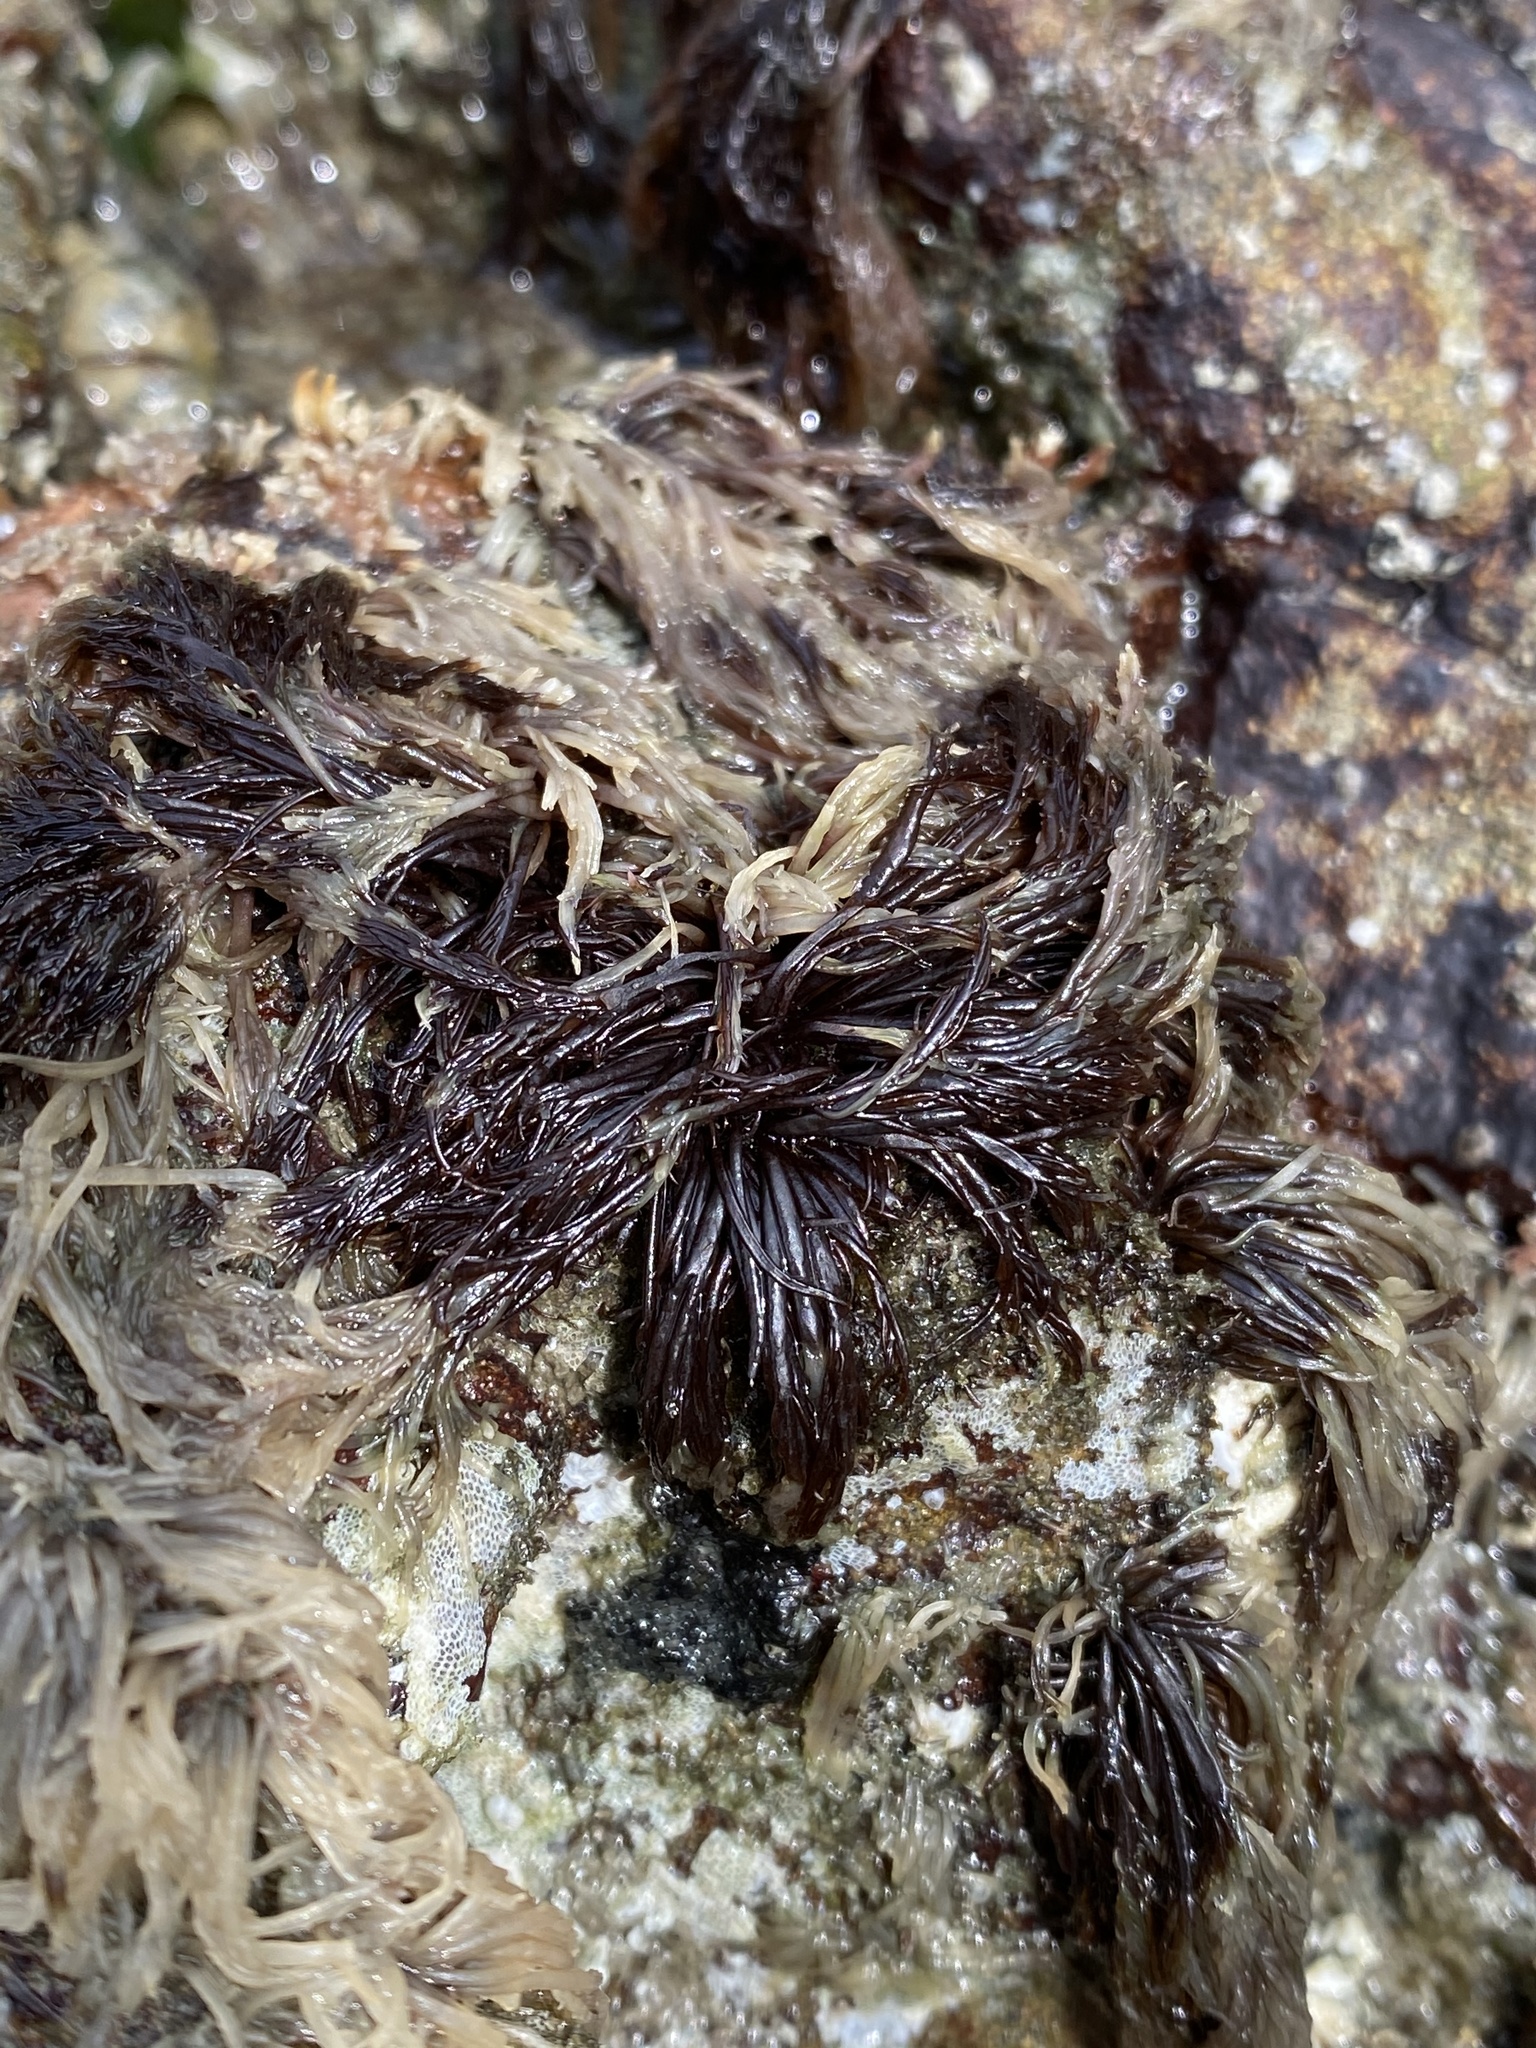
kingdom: Plantae
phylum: Rhodophyta
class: Florideophyceae
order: Gigartinales
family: Dumontiaceae
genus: Cryptosiphonia
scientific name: Cryptosiphonia woodii
